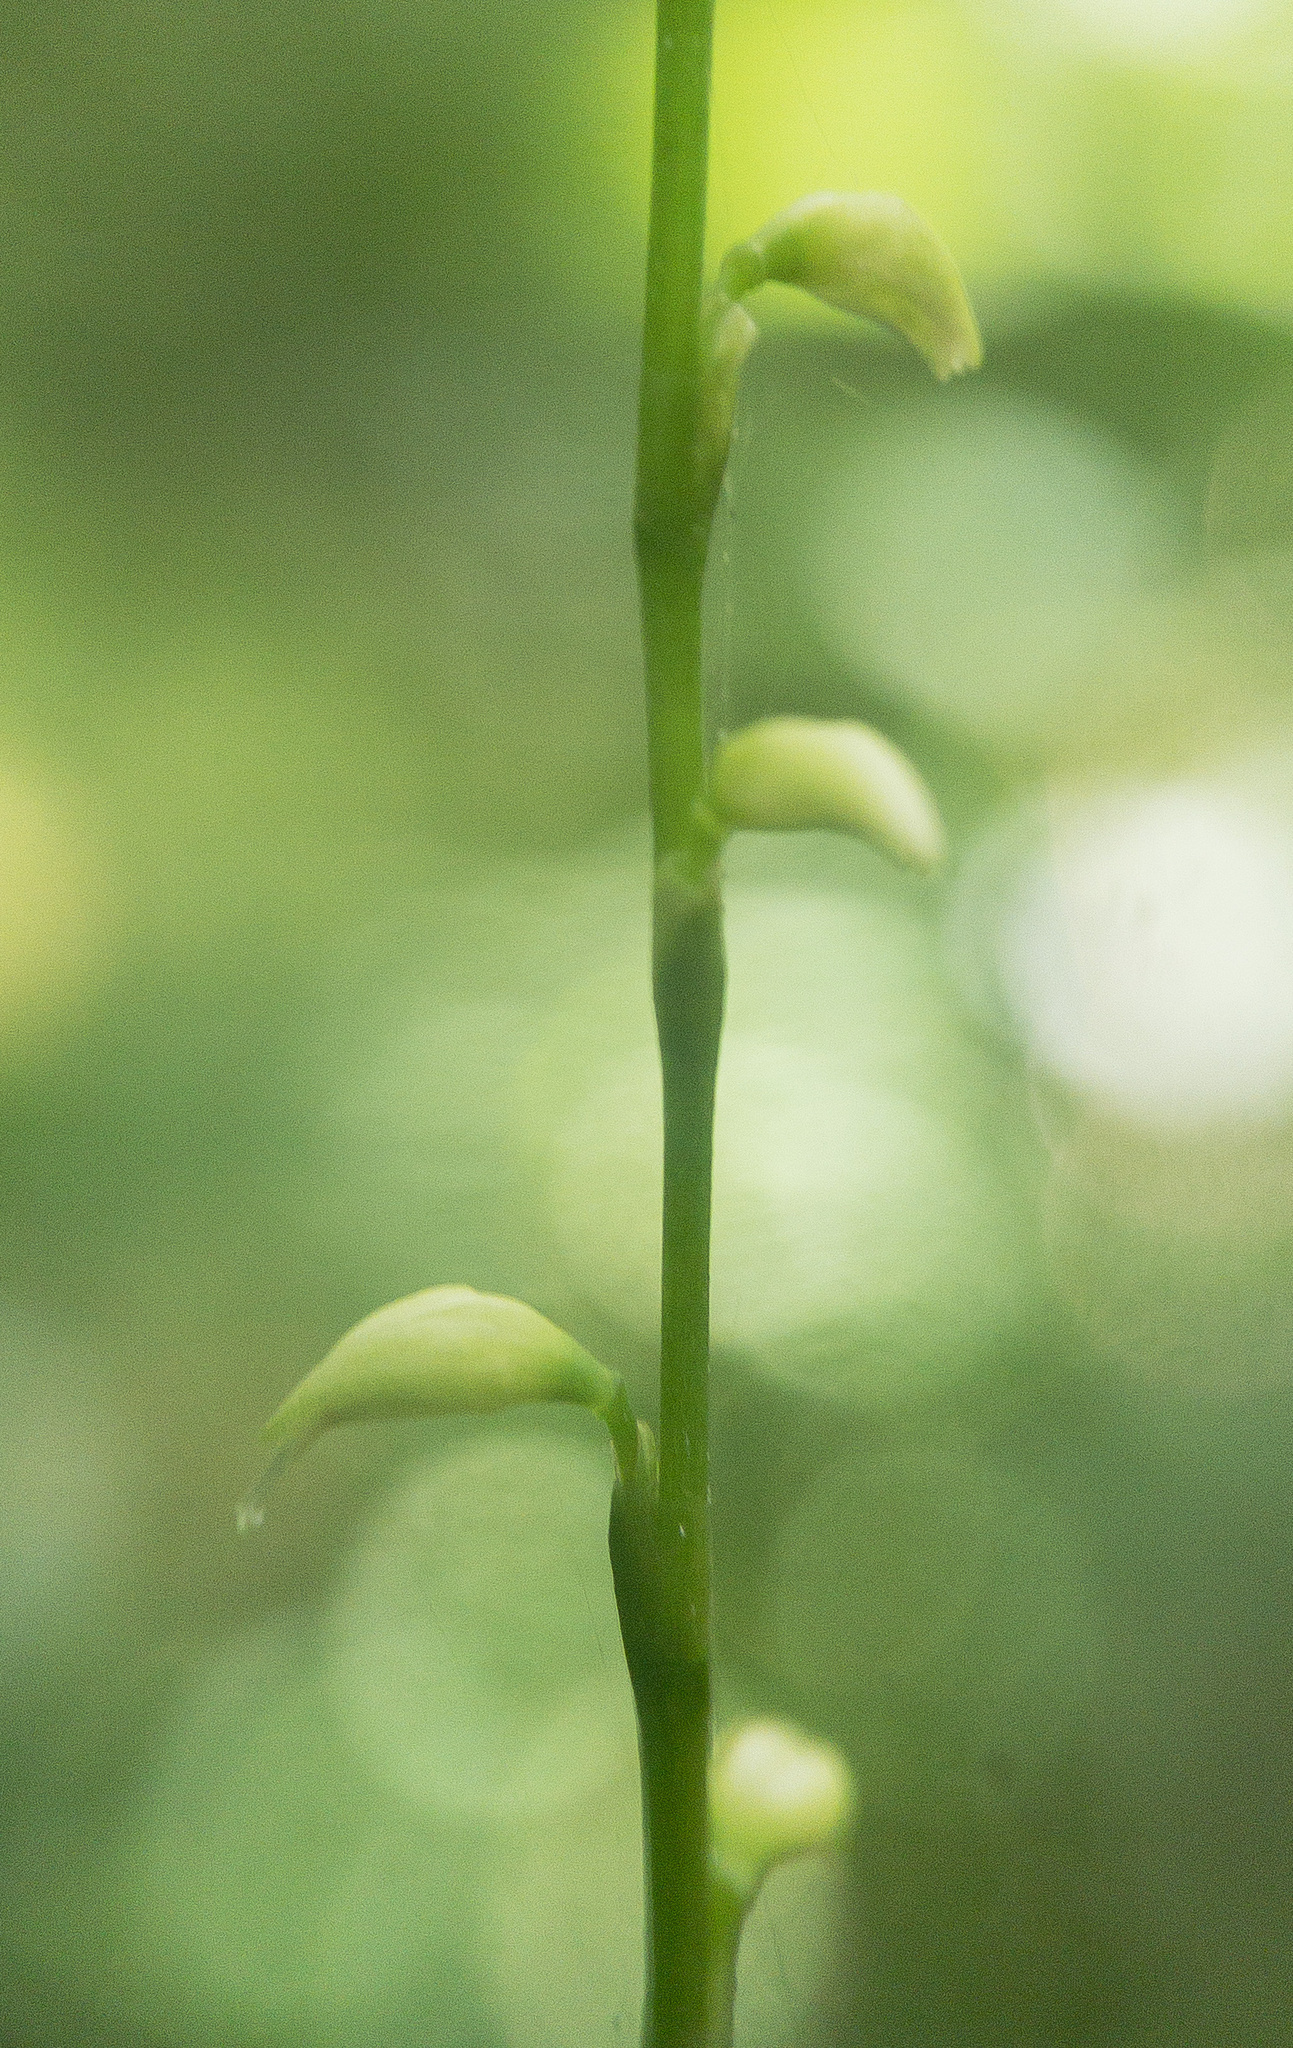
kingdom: Plantae
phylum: Tracheophyta
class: Magnoliopsida
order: Caryophyllales
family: Polygonaceae
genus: Persicaria
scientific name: Persicaria virginiana
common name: Jumpseed
